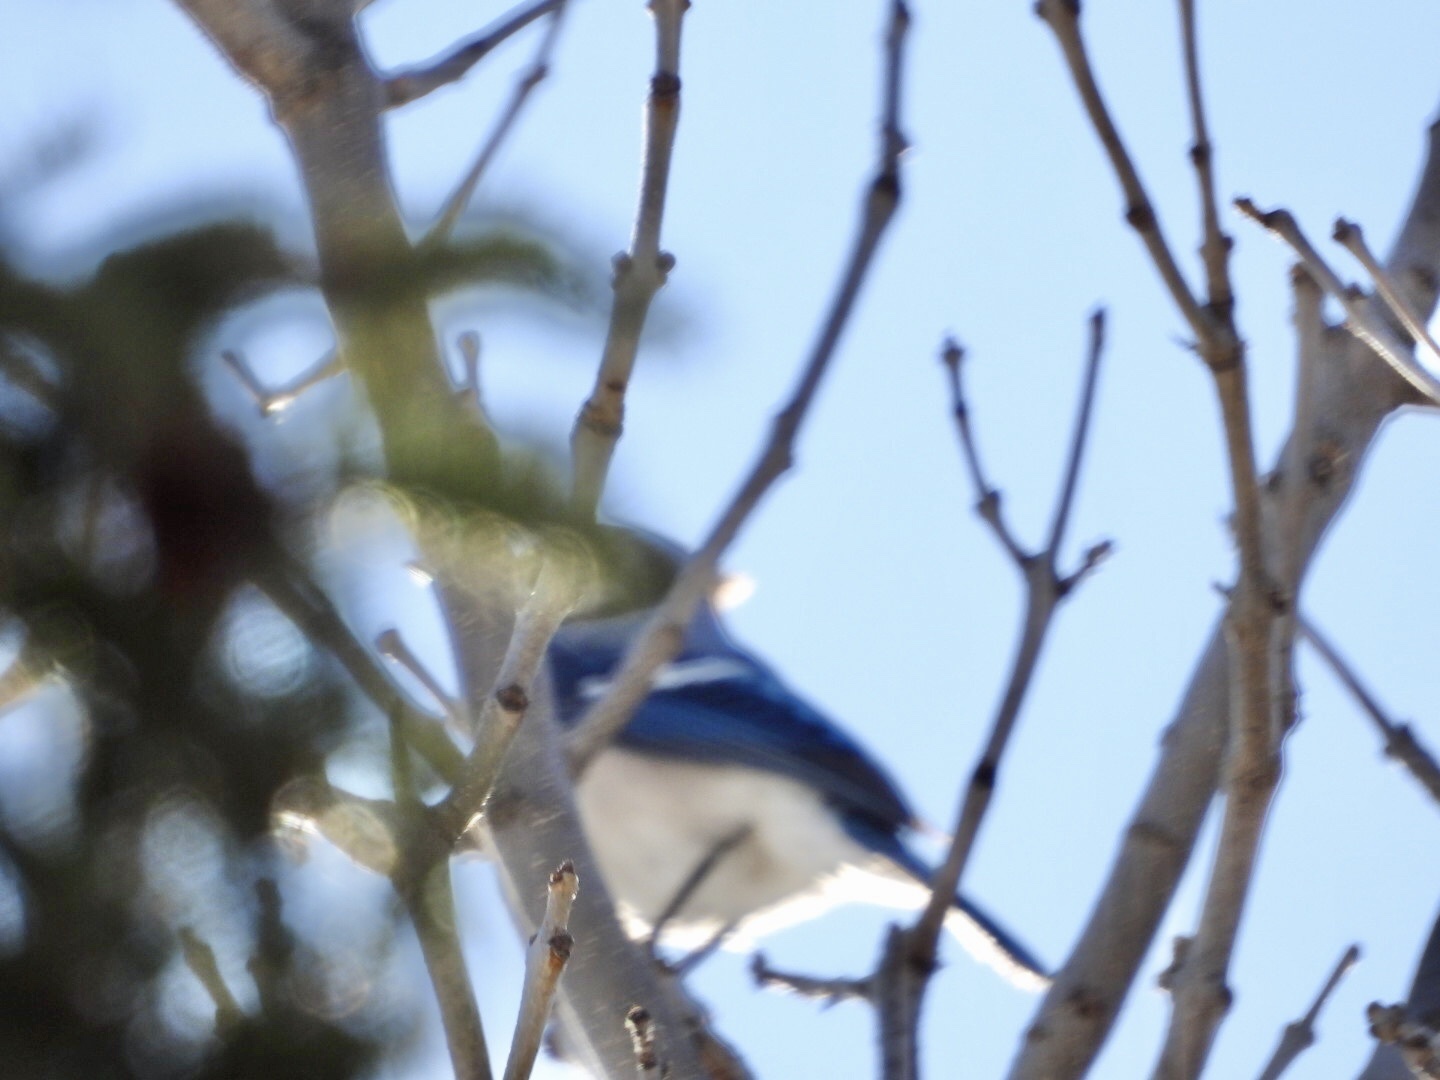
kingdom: Animalia
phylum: Chordata
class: Aves
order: Passeriformes
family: Corvidae
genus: Cyanocitta
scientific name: Cyanocitta cristata
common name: Blue jay
